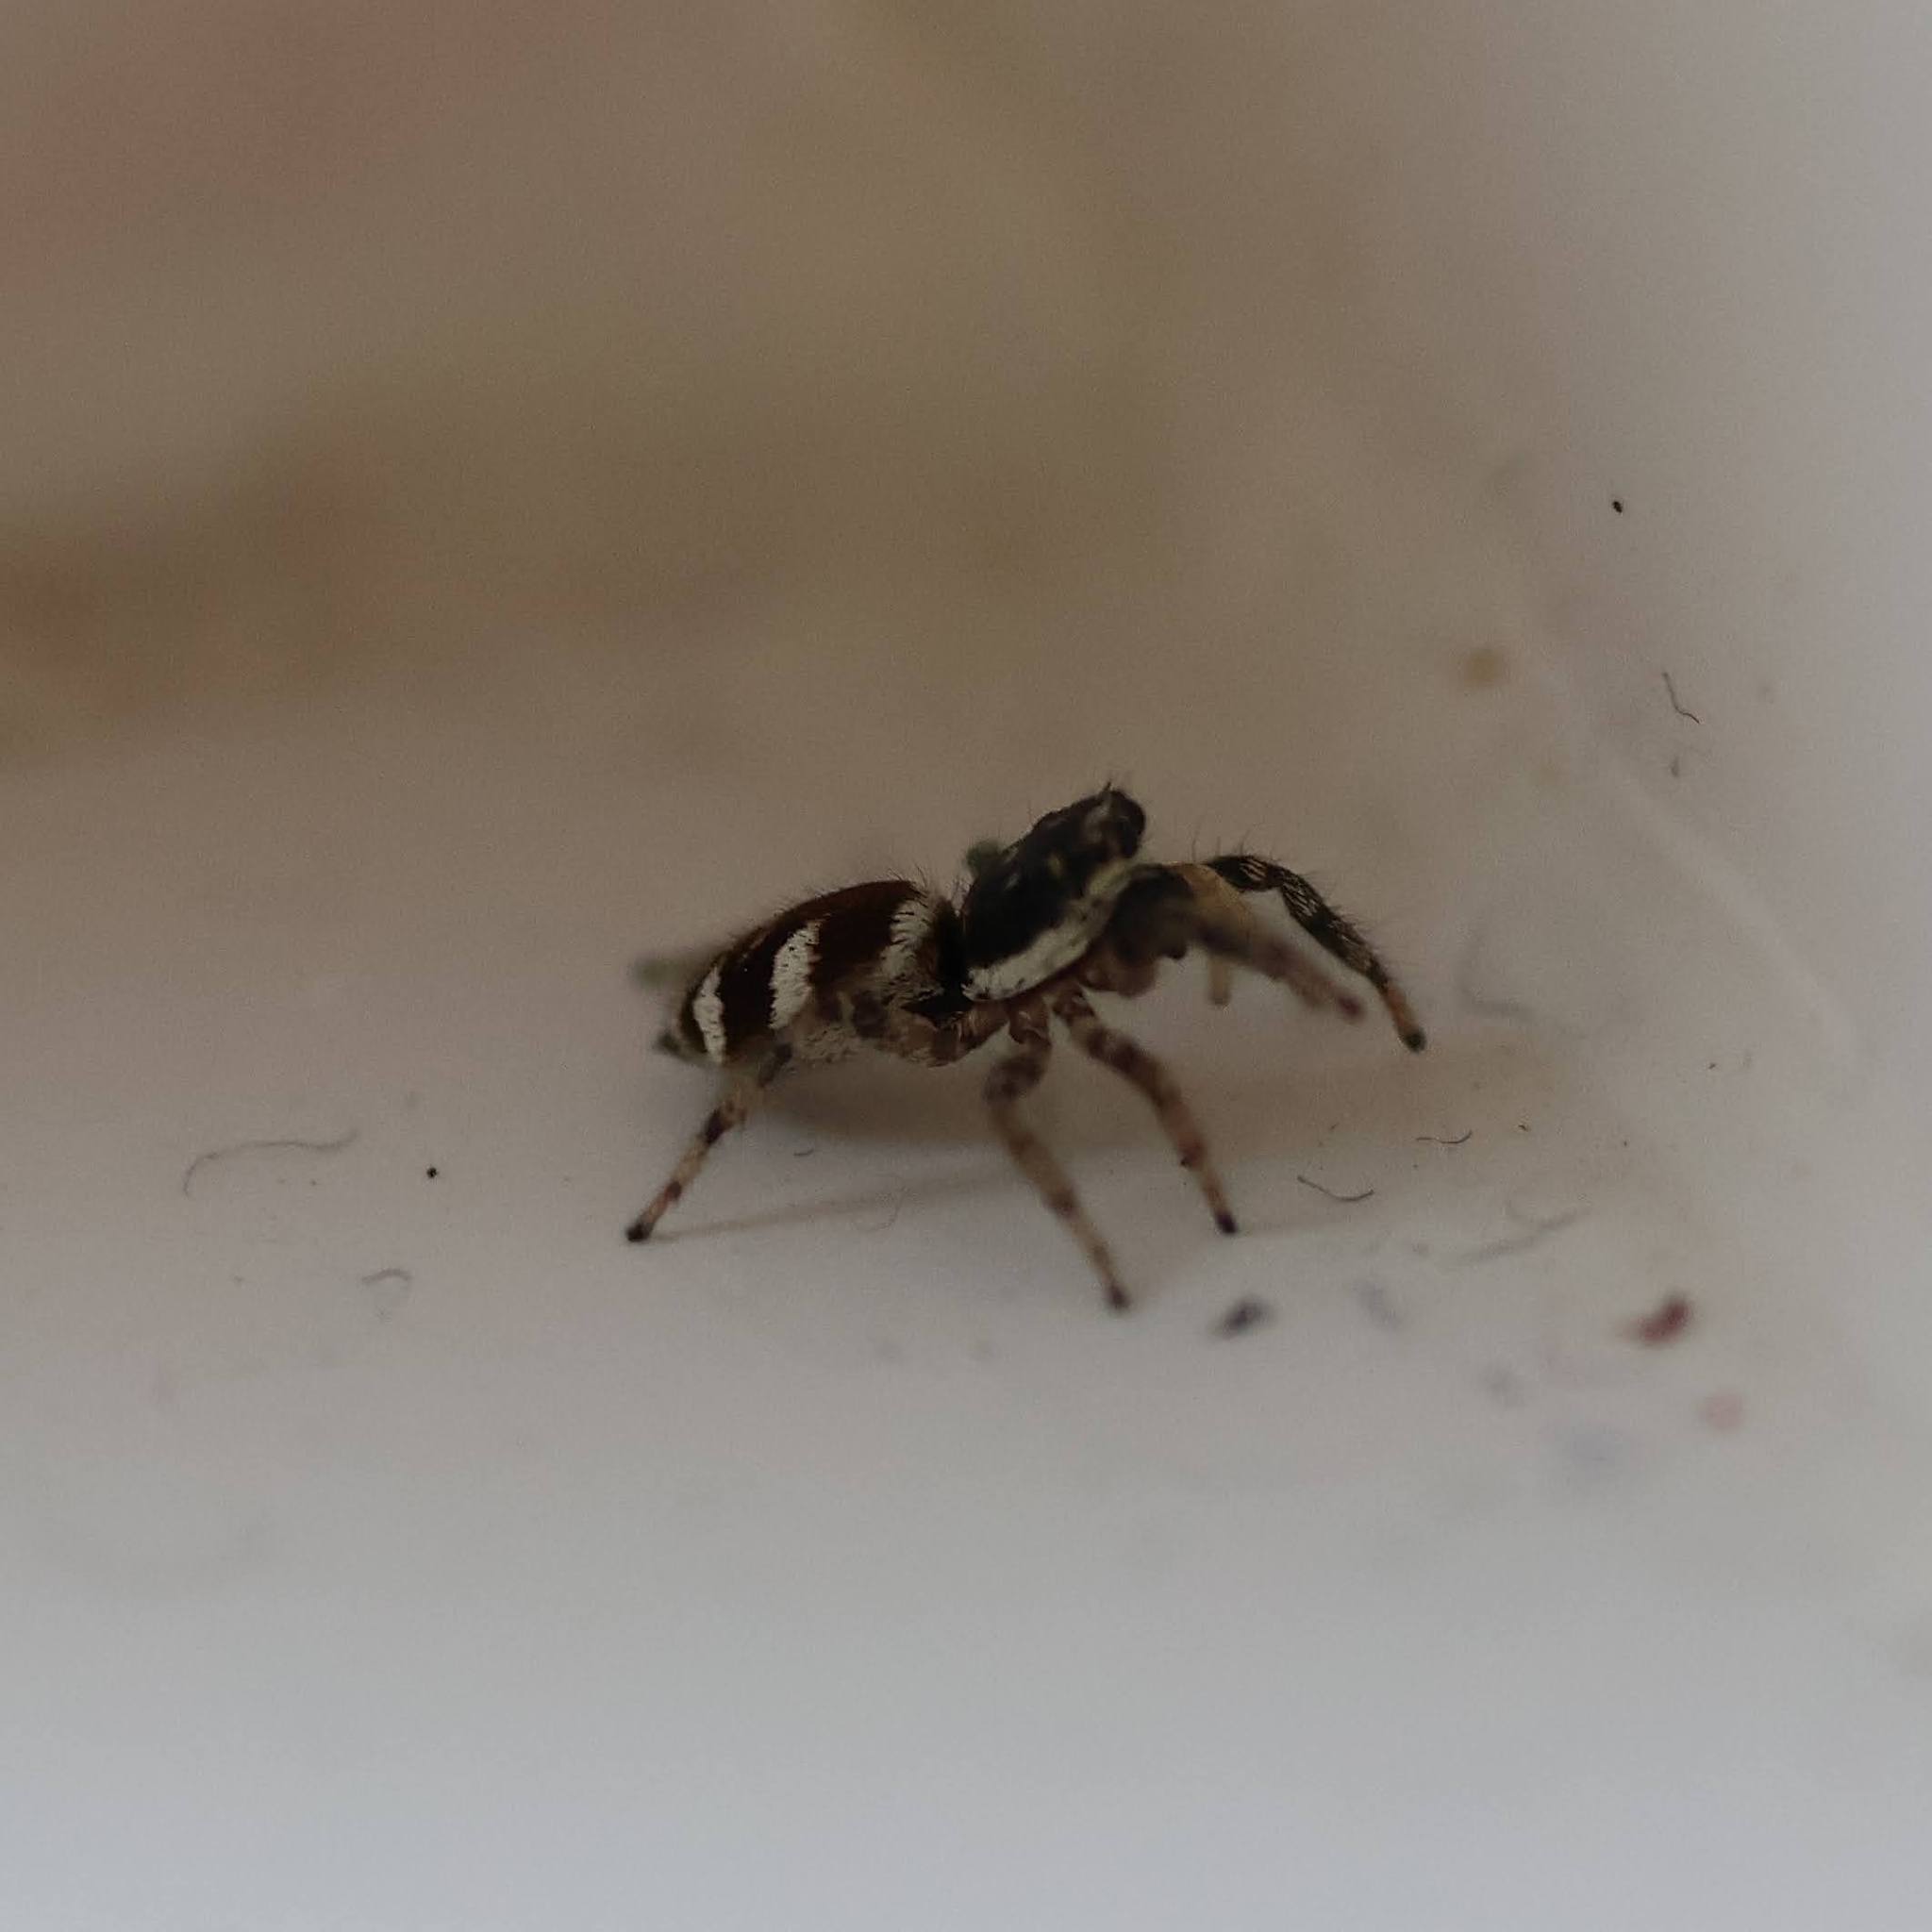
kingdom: Animalia
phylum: Arthropoda
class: Arachnida
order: Araneae
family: Salticidae
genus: Salticus
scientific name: Salticus scenicus
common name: Zebra jumper
